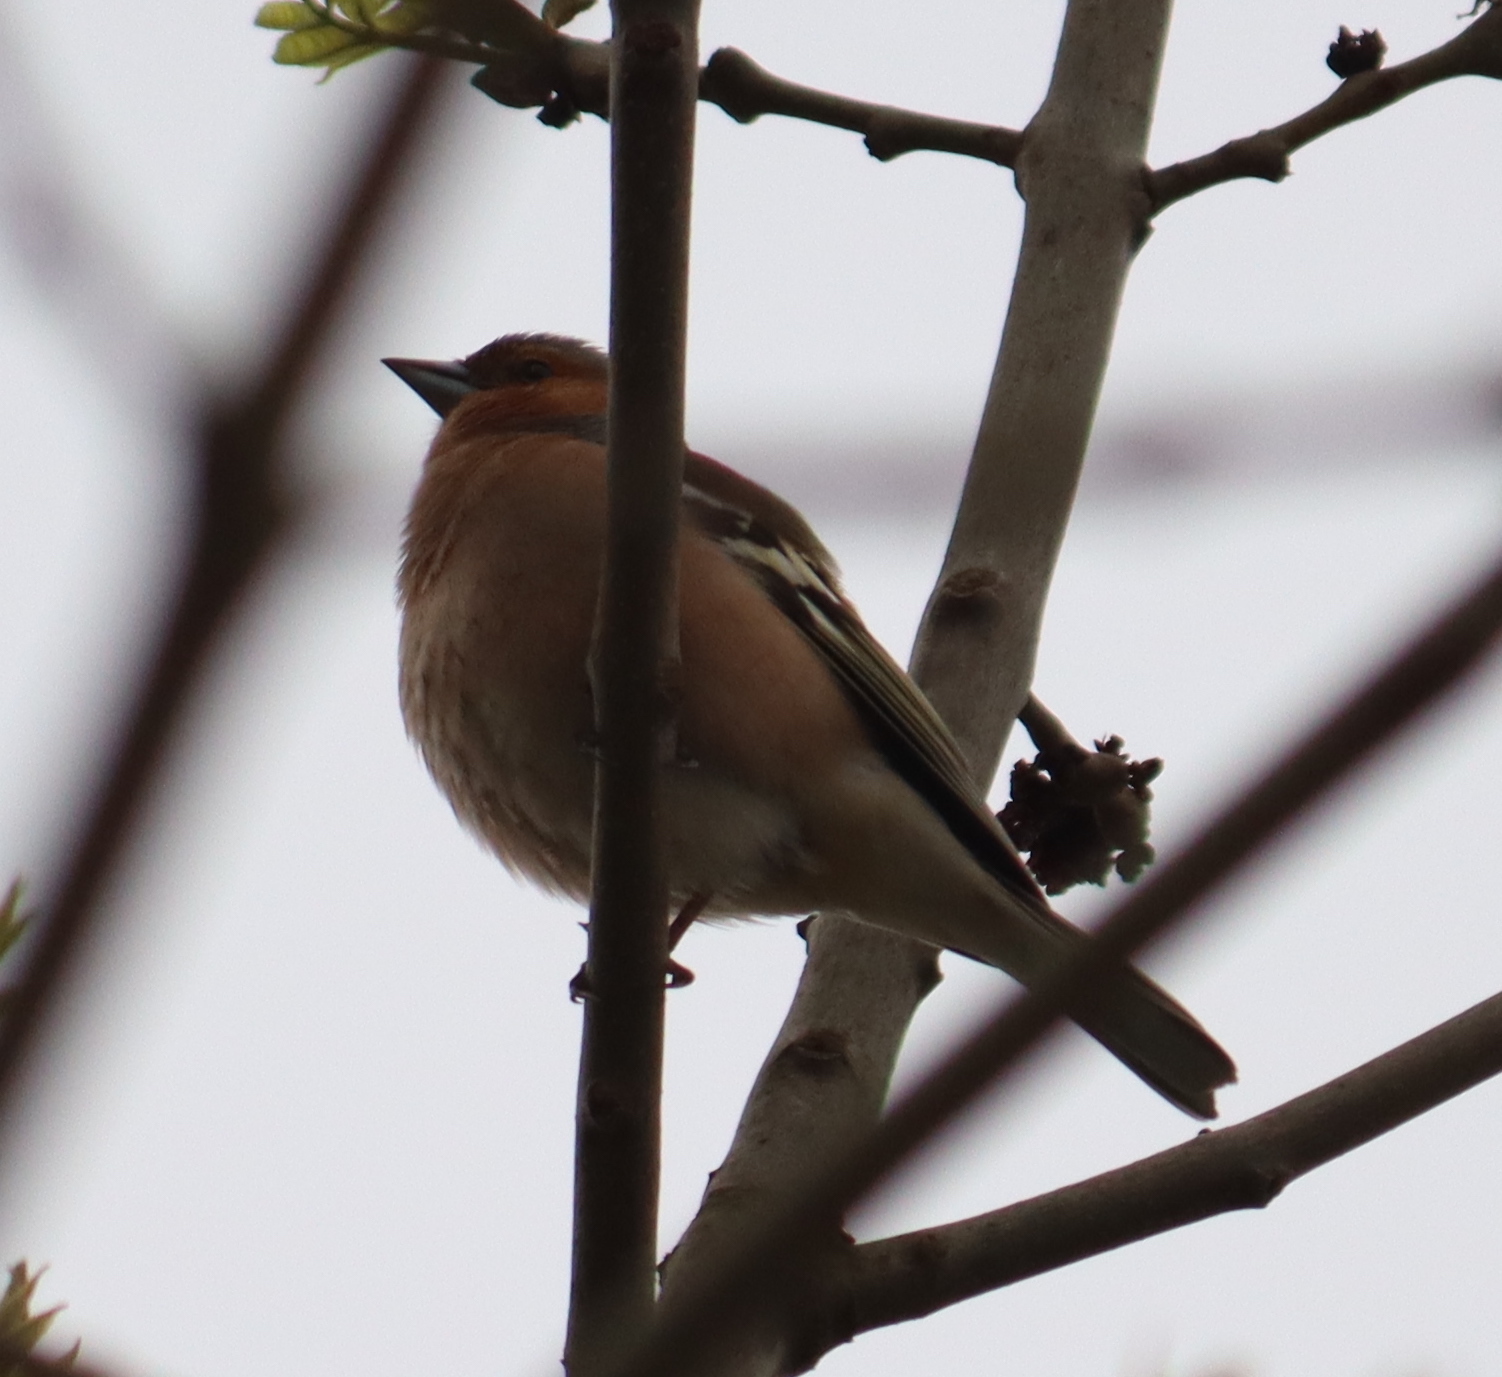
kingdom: Animalia
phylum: Chordata
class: Aves
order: Passeriformes
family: Fringillidae
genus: Fringilla
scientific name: Fringilla coelebs
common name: Common chaffinch
